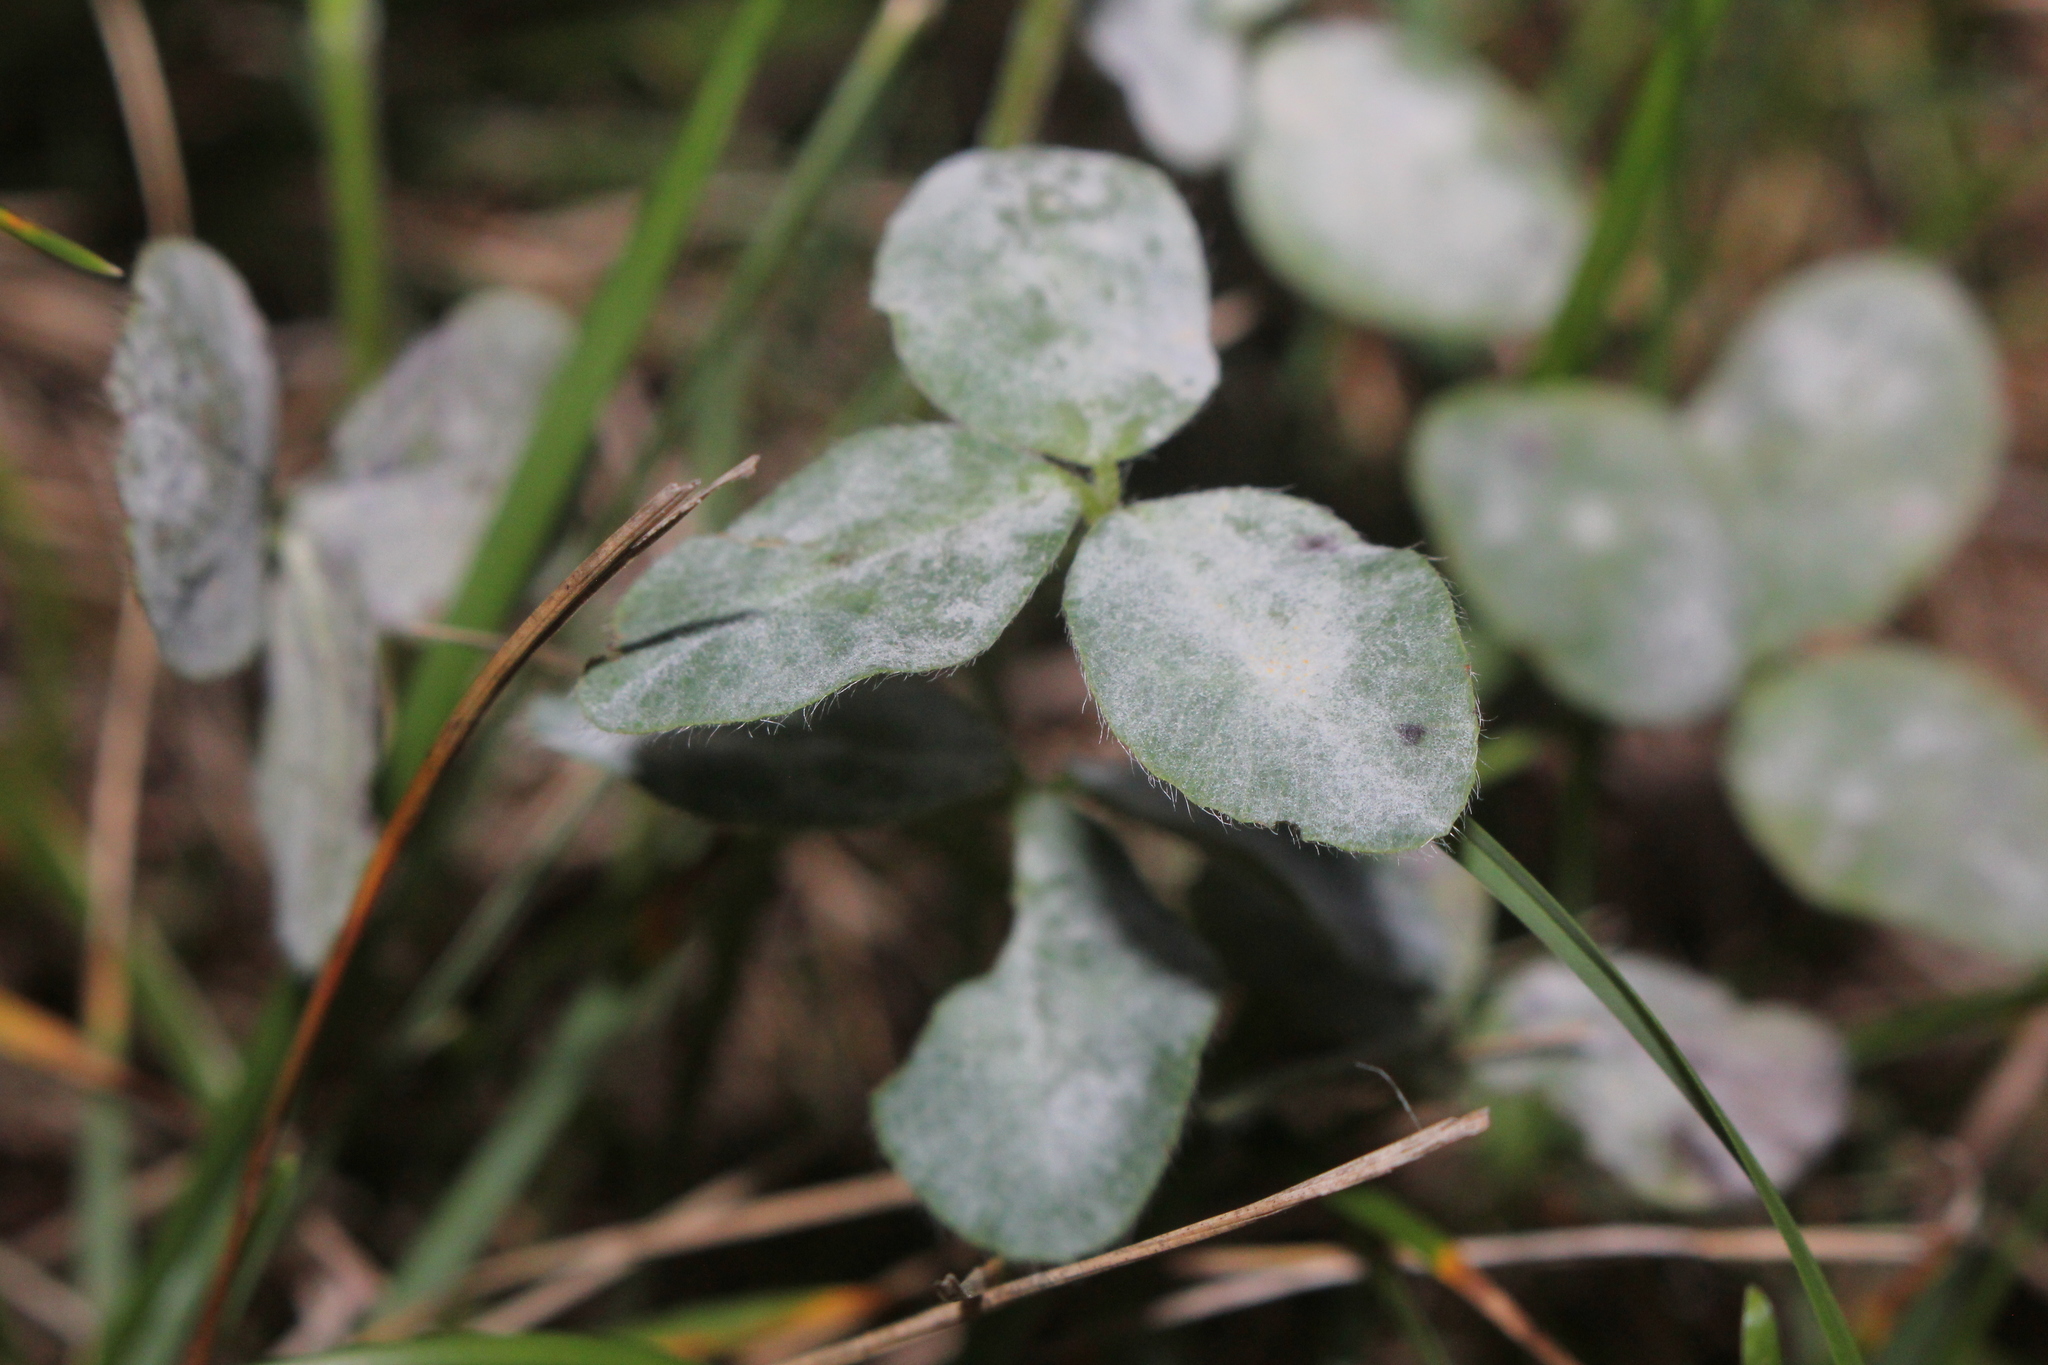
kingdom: Fungi
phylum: Ascomycota
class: Leotiomycetes
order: Helotiales
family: Erysiphaceae
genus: Erysiphe
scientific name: Erysiphe trifoliorum
